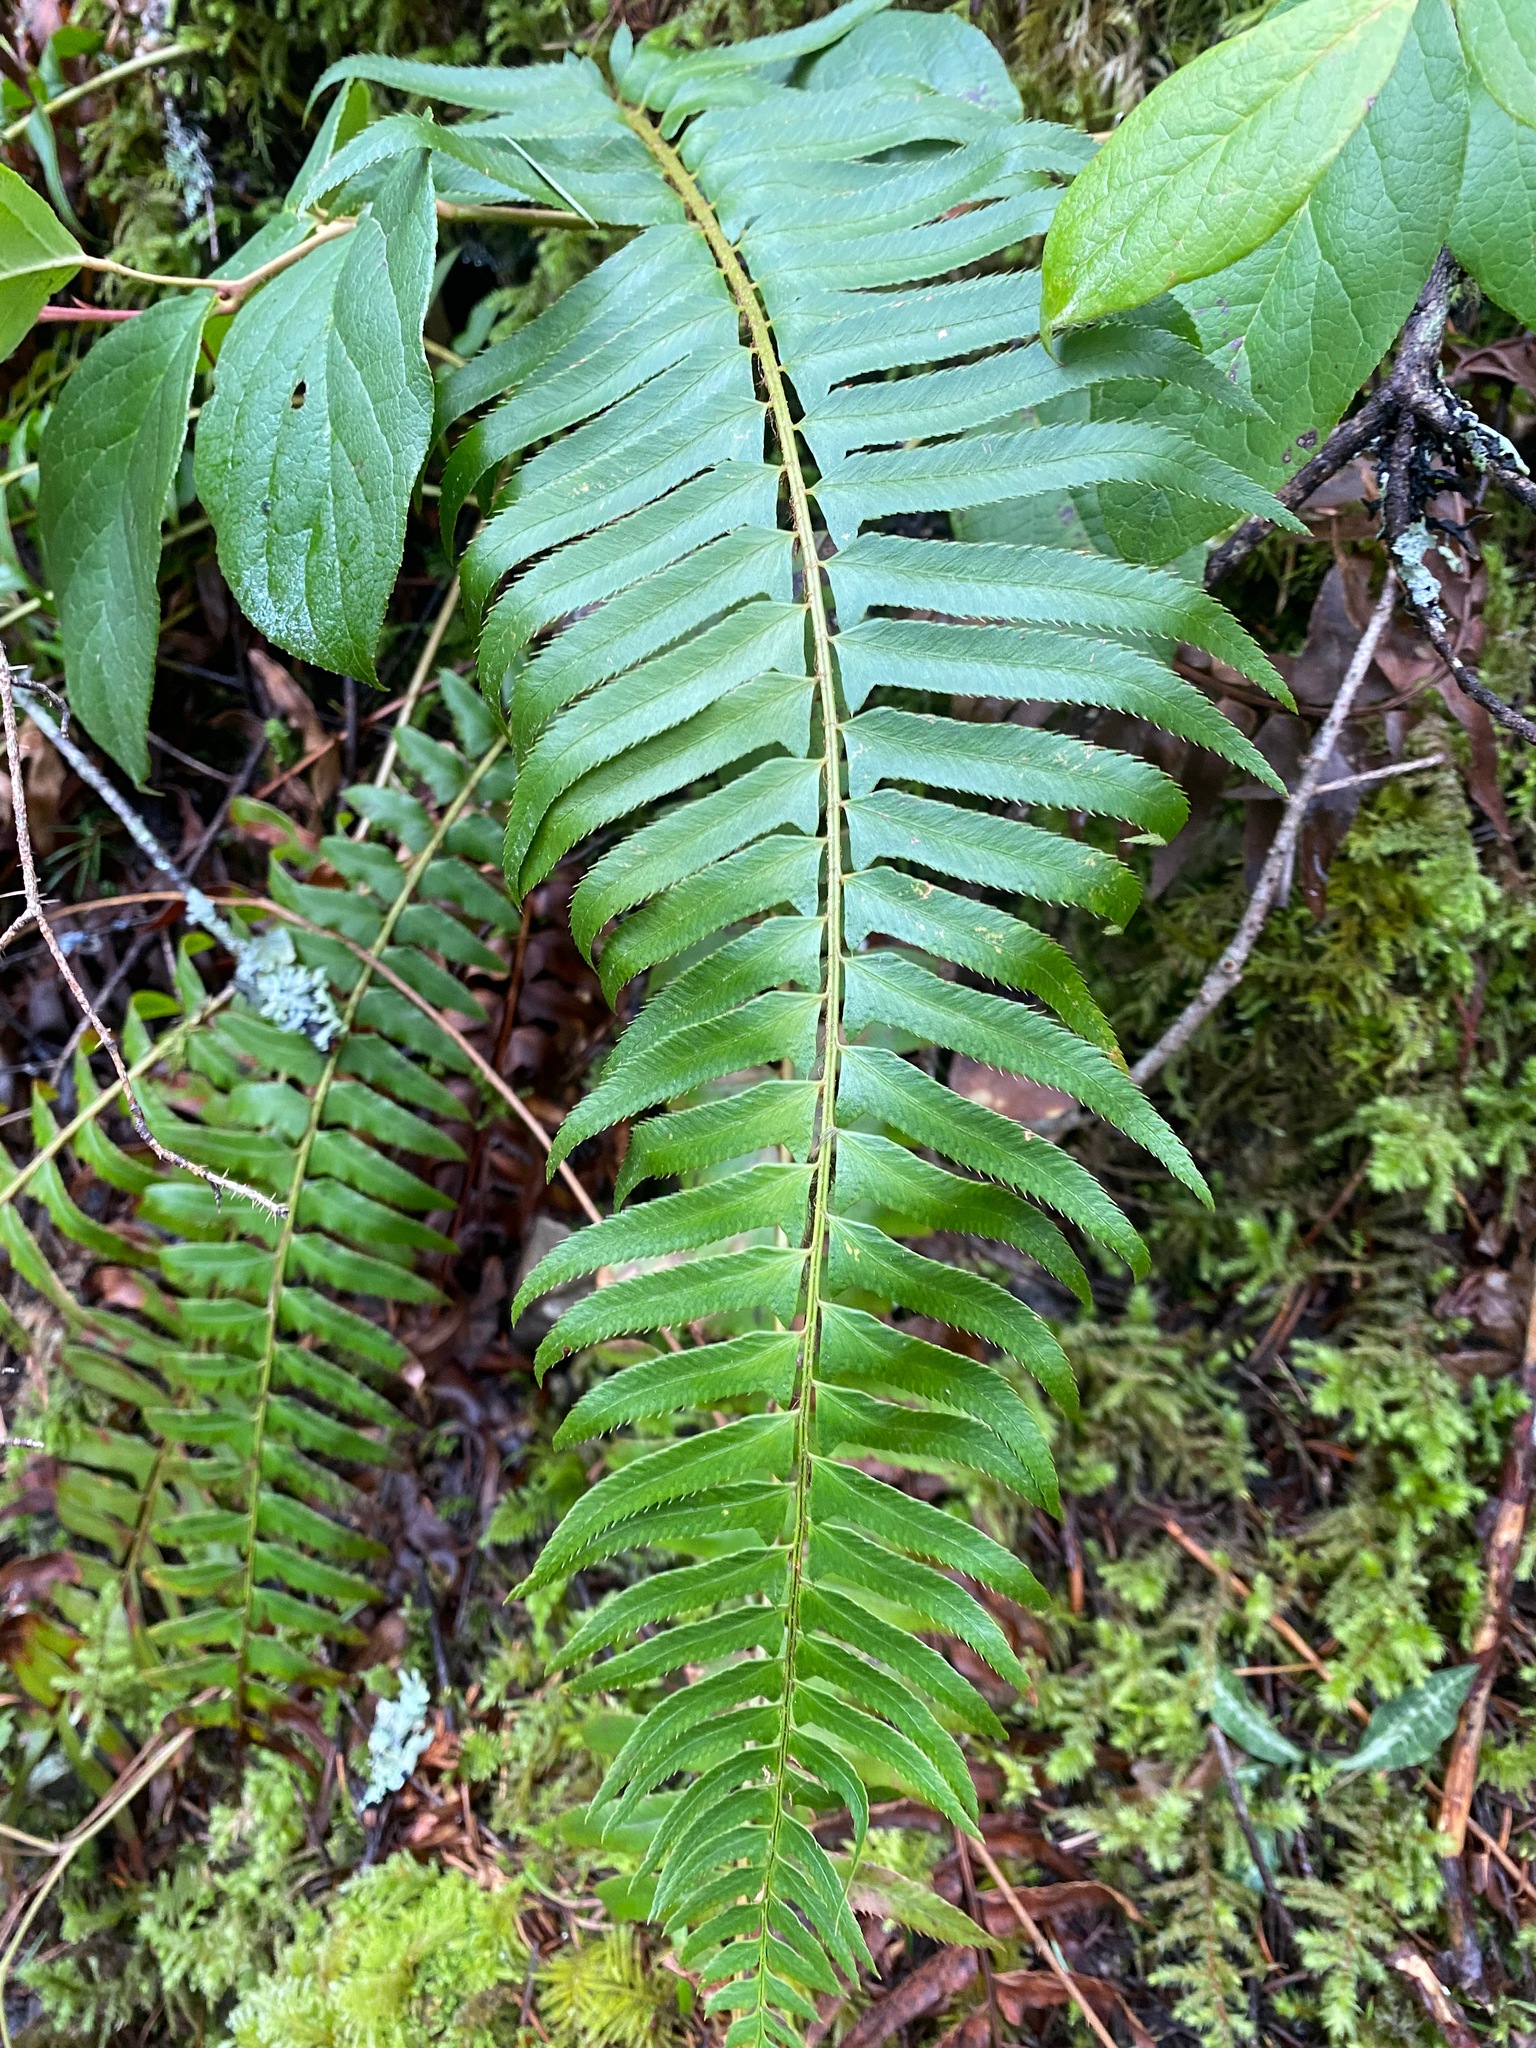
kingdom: Plantae
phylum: Tracheophyta
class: Polypodiopsida
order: Polypodiales
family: Dryopteridaceae
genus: Polystichum
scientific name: Polystichum munitum
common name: Western sword-fern
